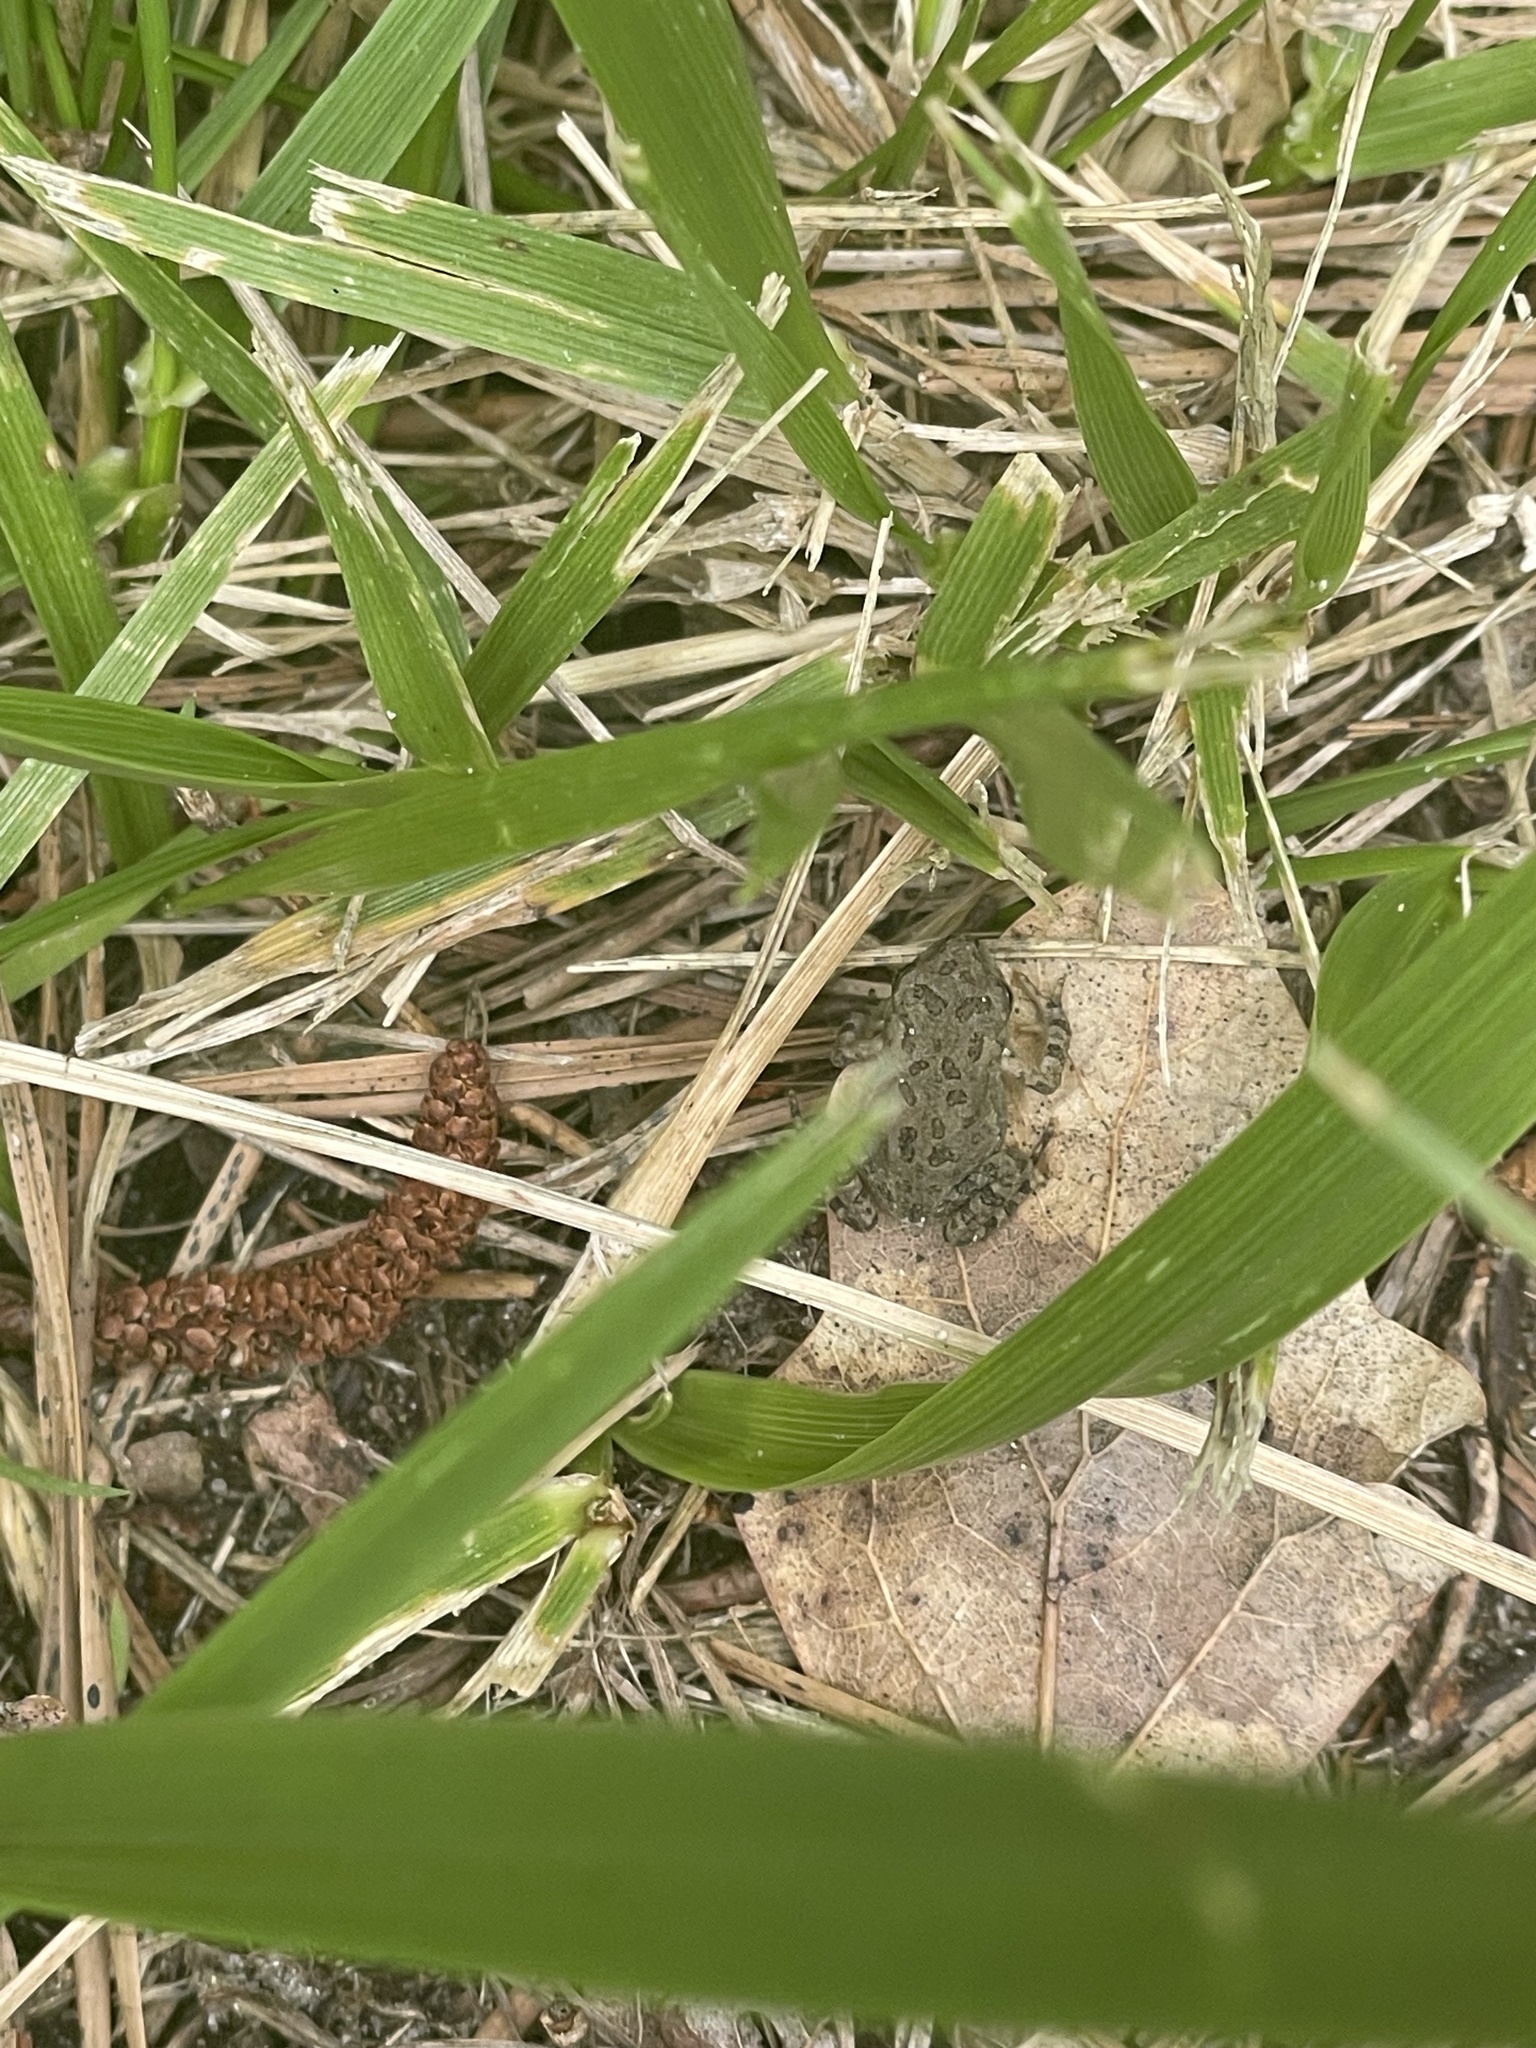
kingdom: Animalia
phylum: Chordata
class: Amphibia
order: Anura
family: Bufonidae
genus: Anaxyrus
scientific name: Anaxyrus fowleri
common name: Fowler's toad
